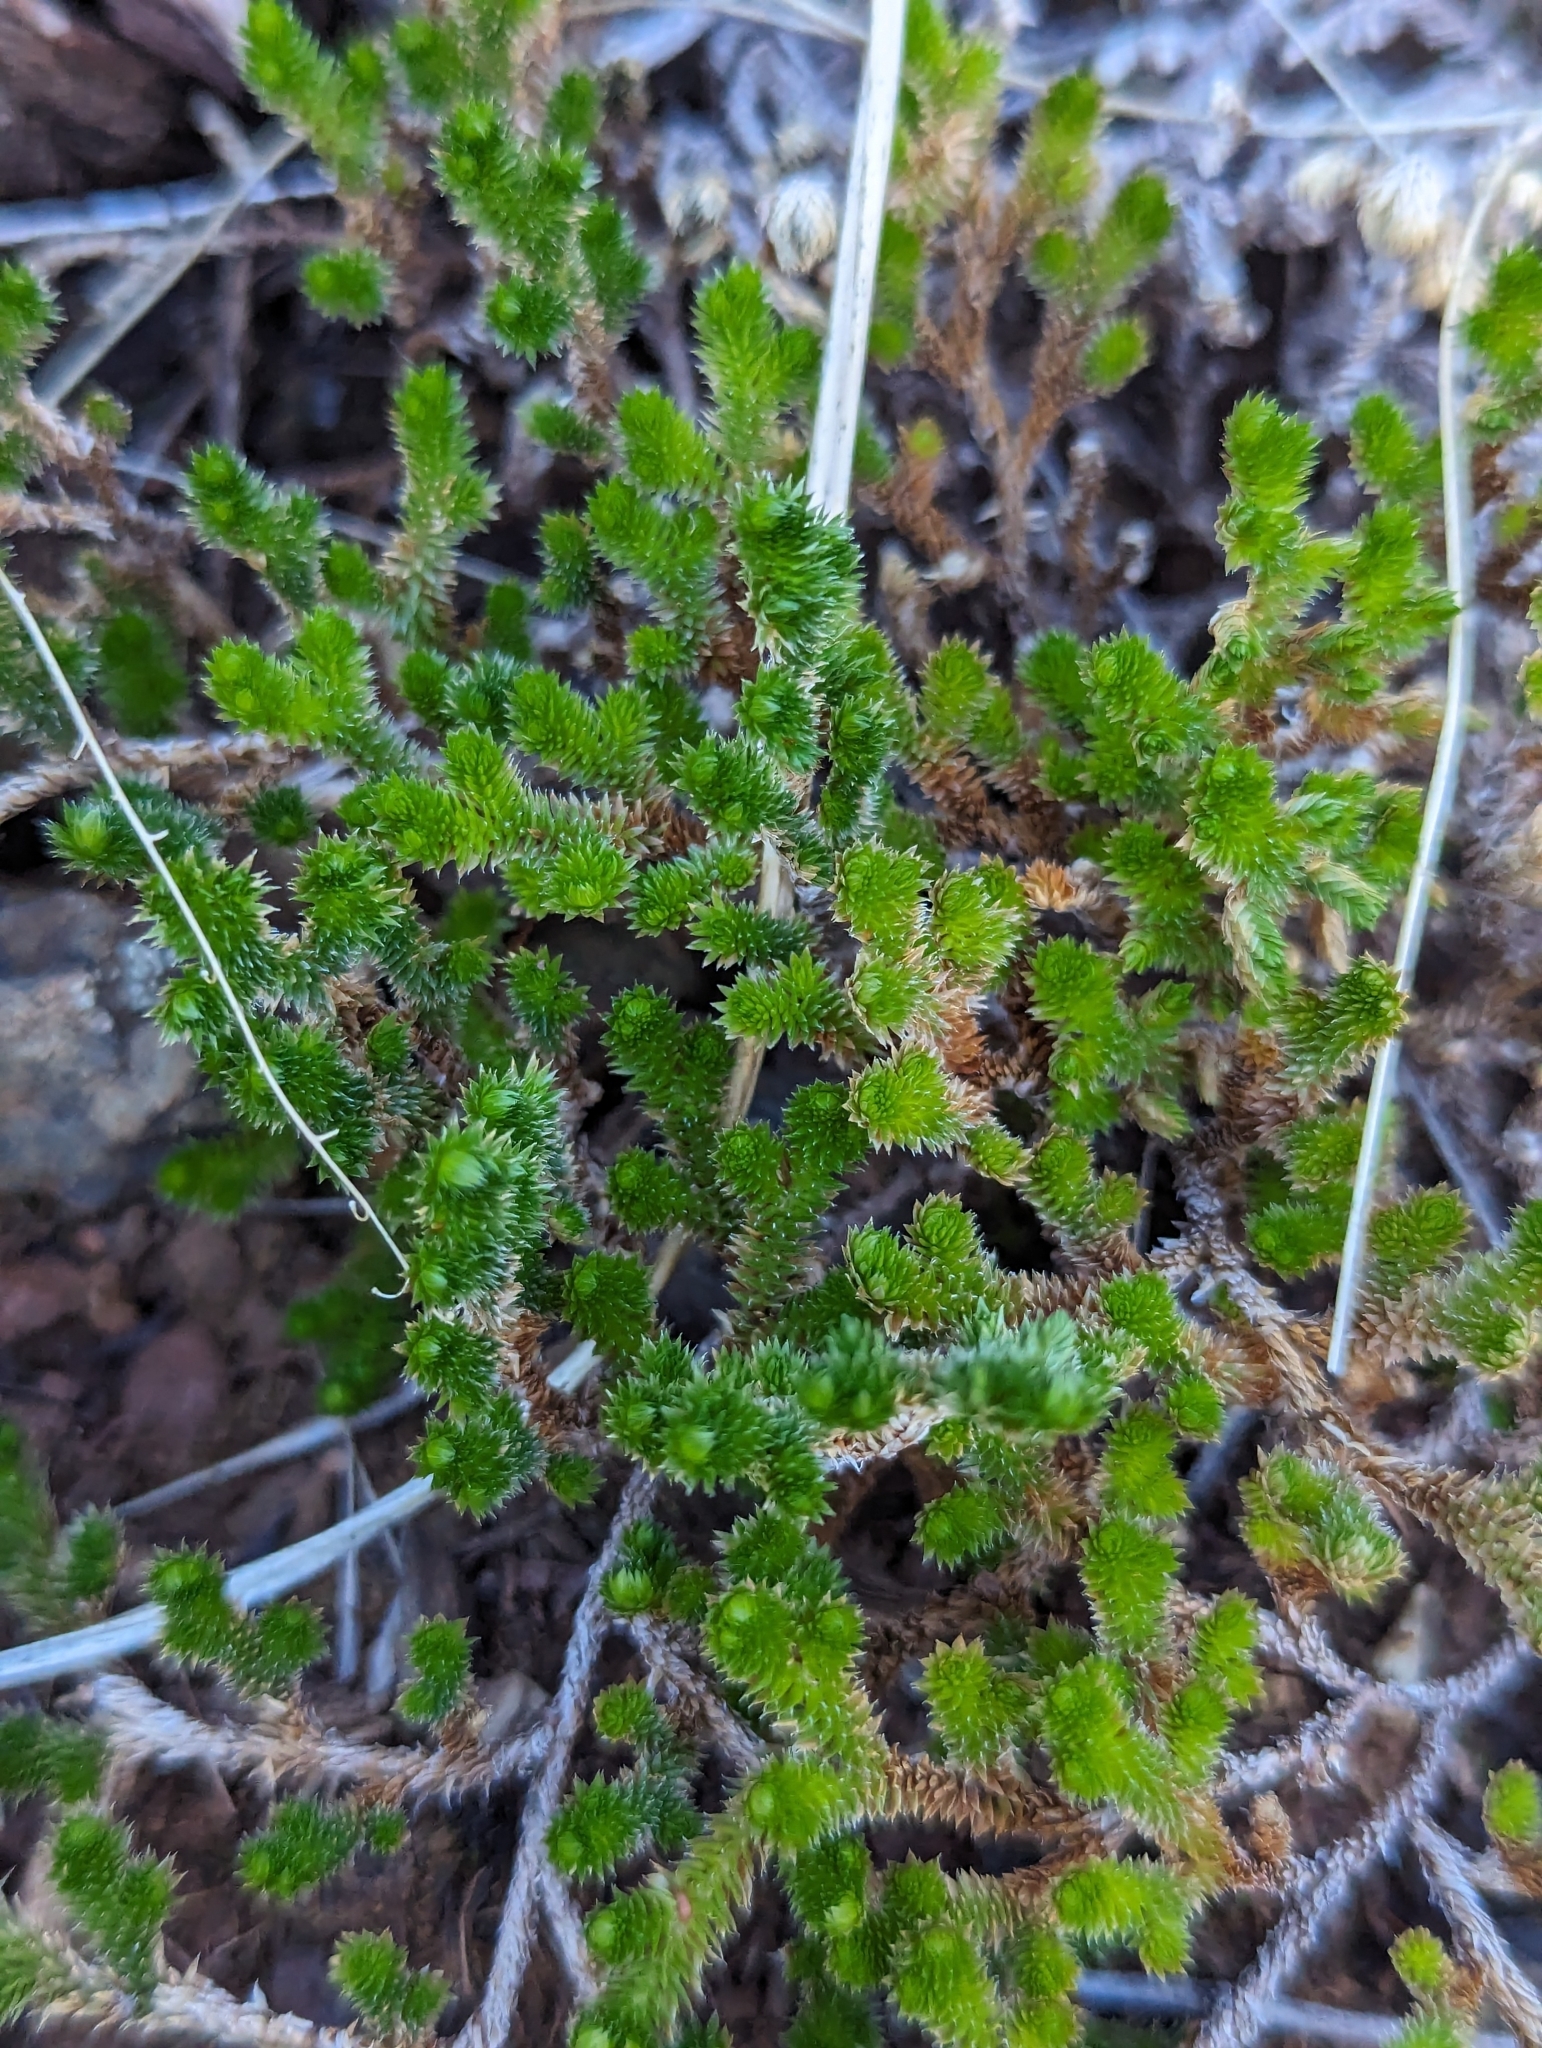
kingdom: Plantae
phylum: Tracheophyta
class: Lycopodiopsida
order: Selaginellales
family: Selaginellaceae
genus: Selaginella
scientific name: Selaginella arizonica
